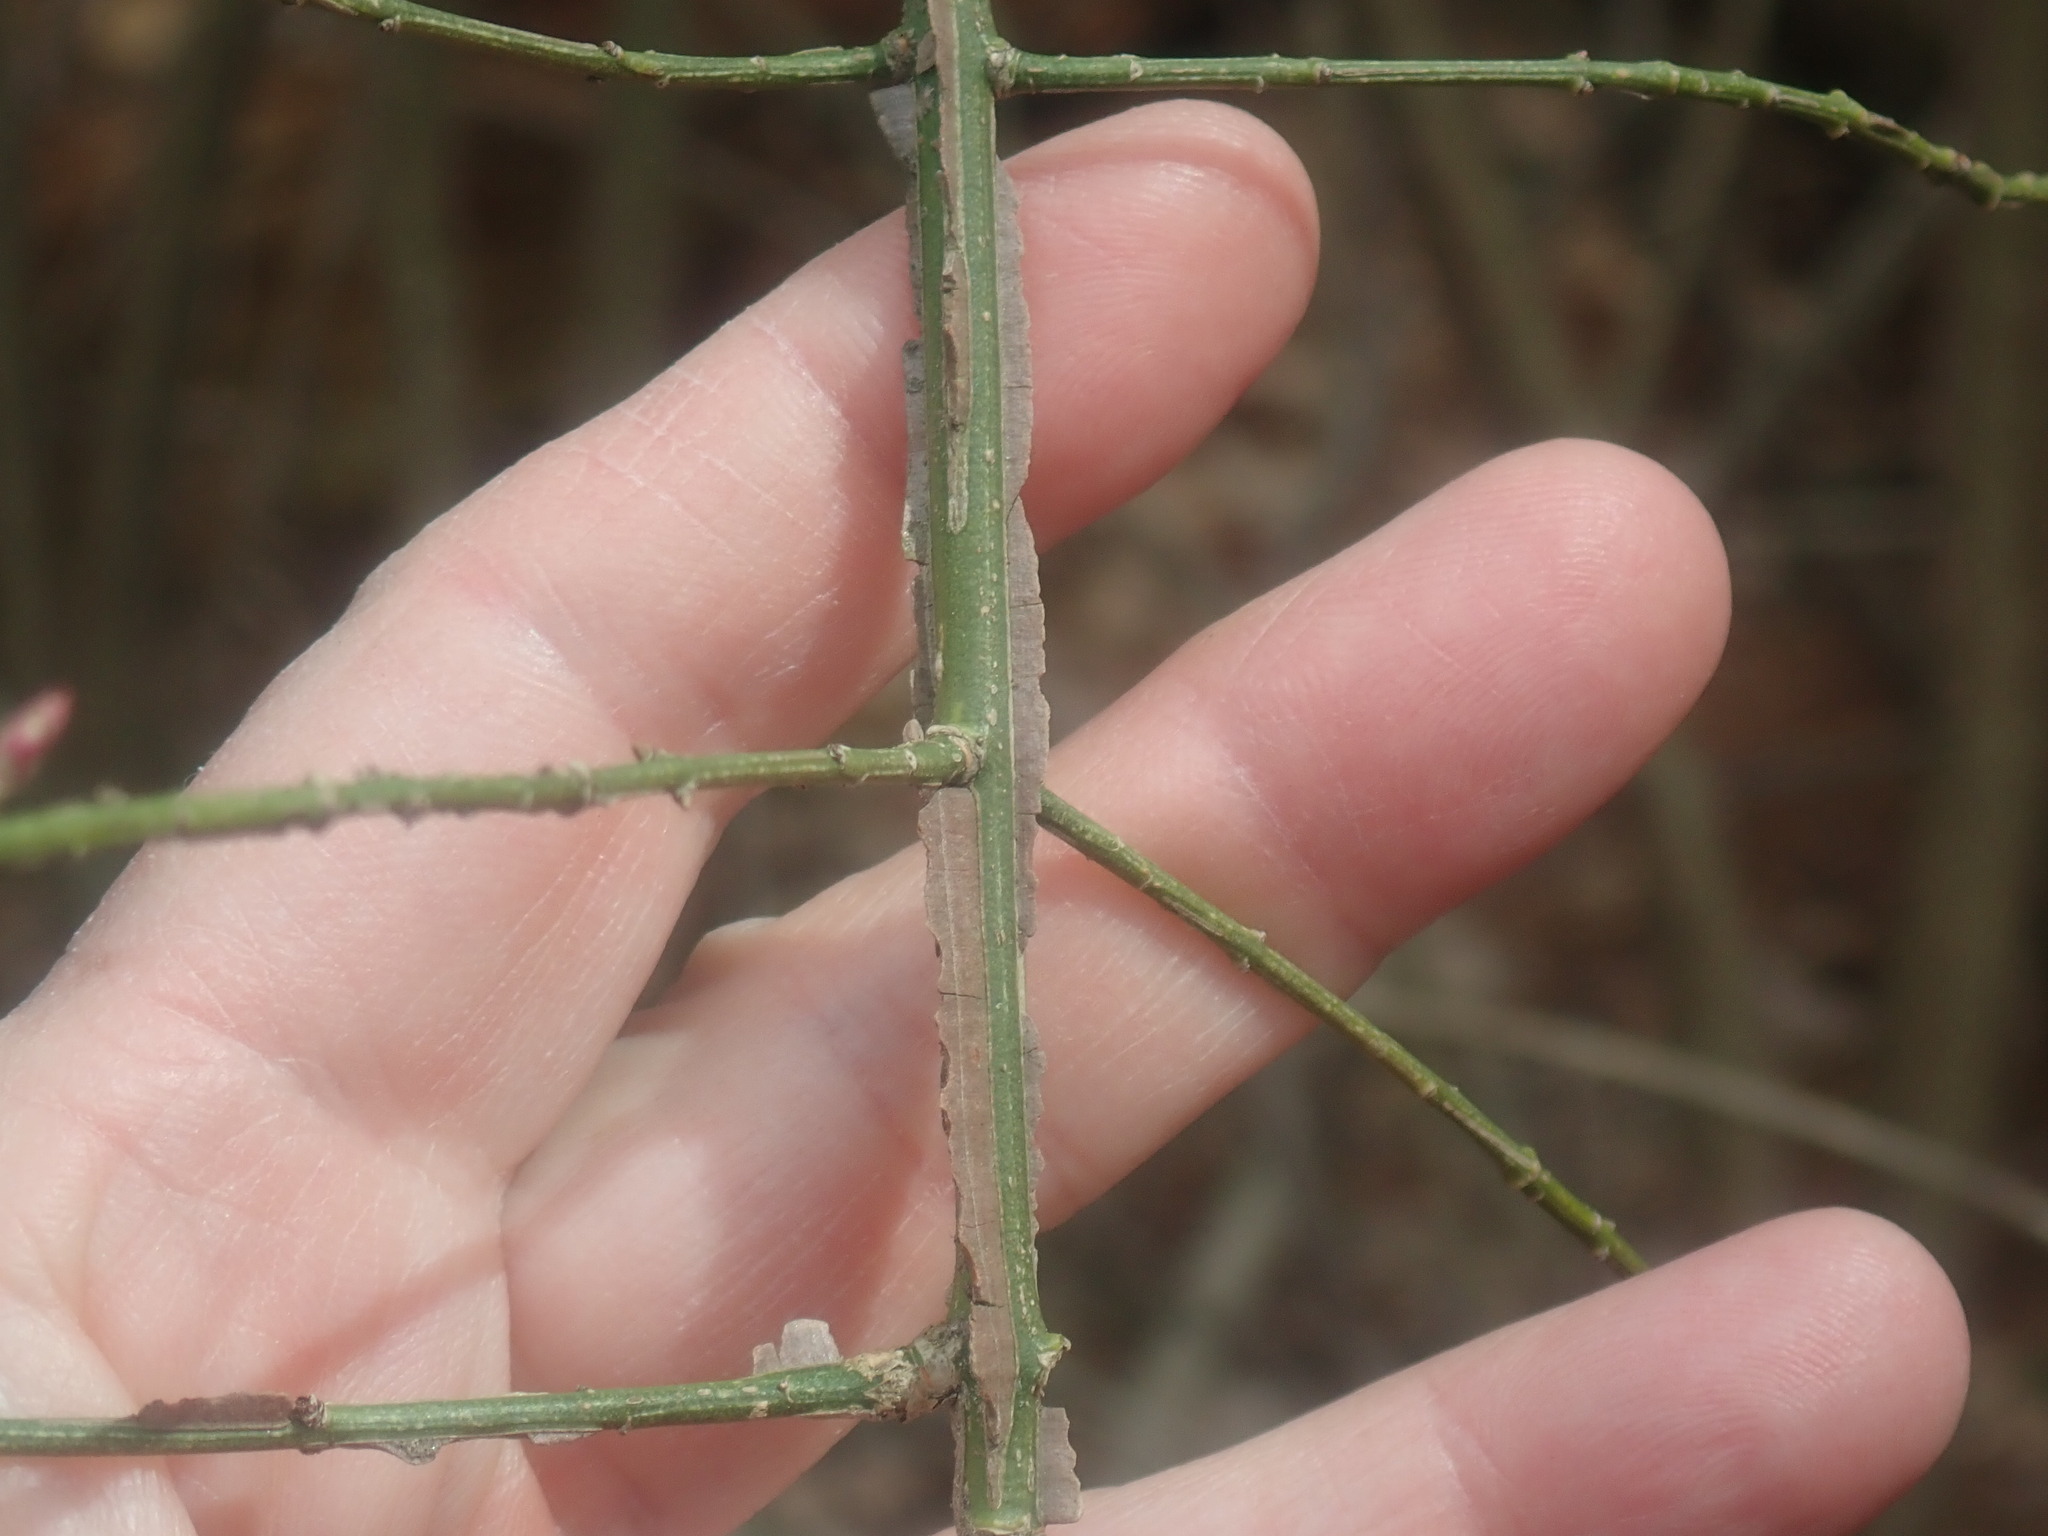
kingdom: Plantae
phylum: Tracheophyta
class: Magnoliopsida
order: Celastrales
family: Celastraceae
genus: Euonymus
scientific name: Euonymus alatus
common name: Winged euonymus
